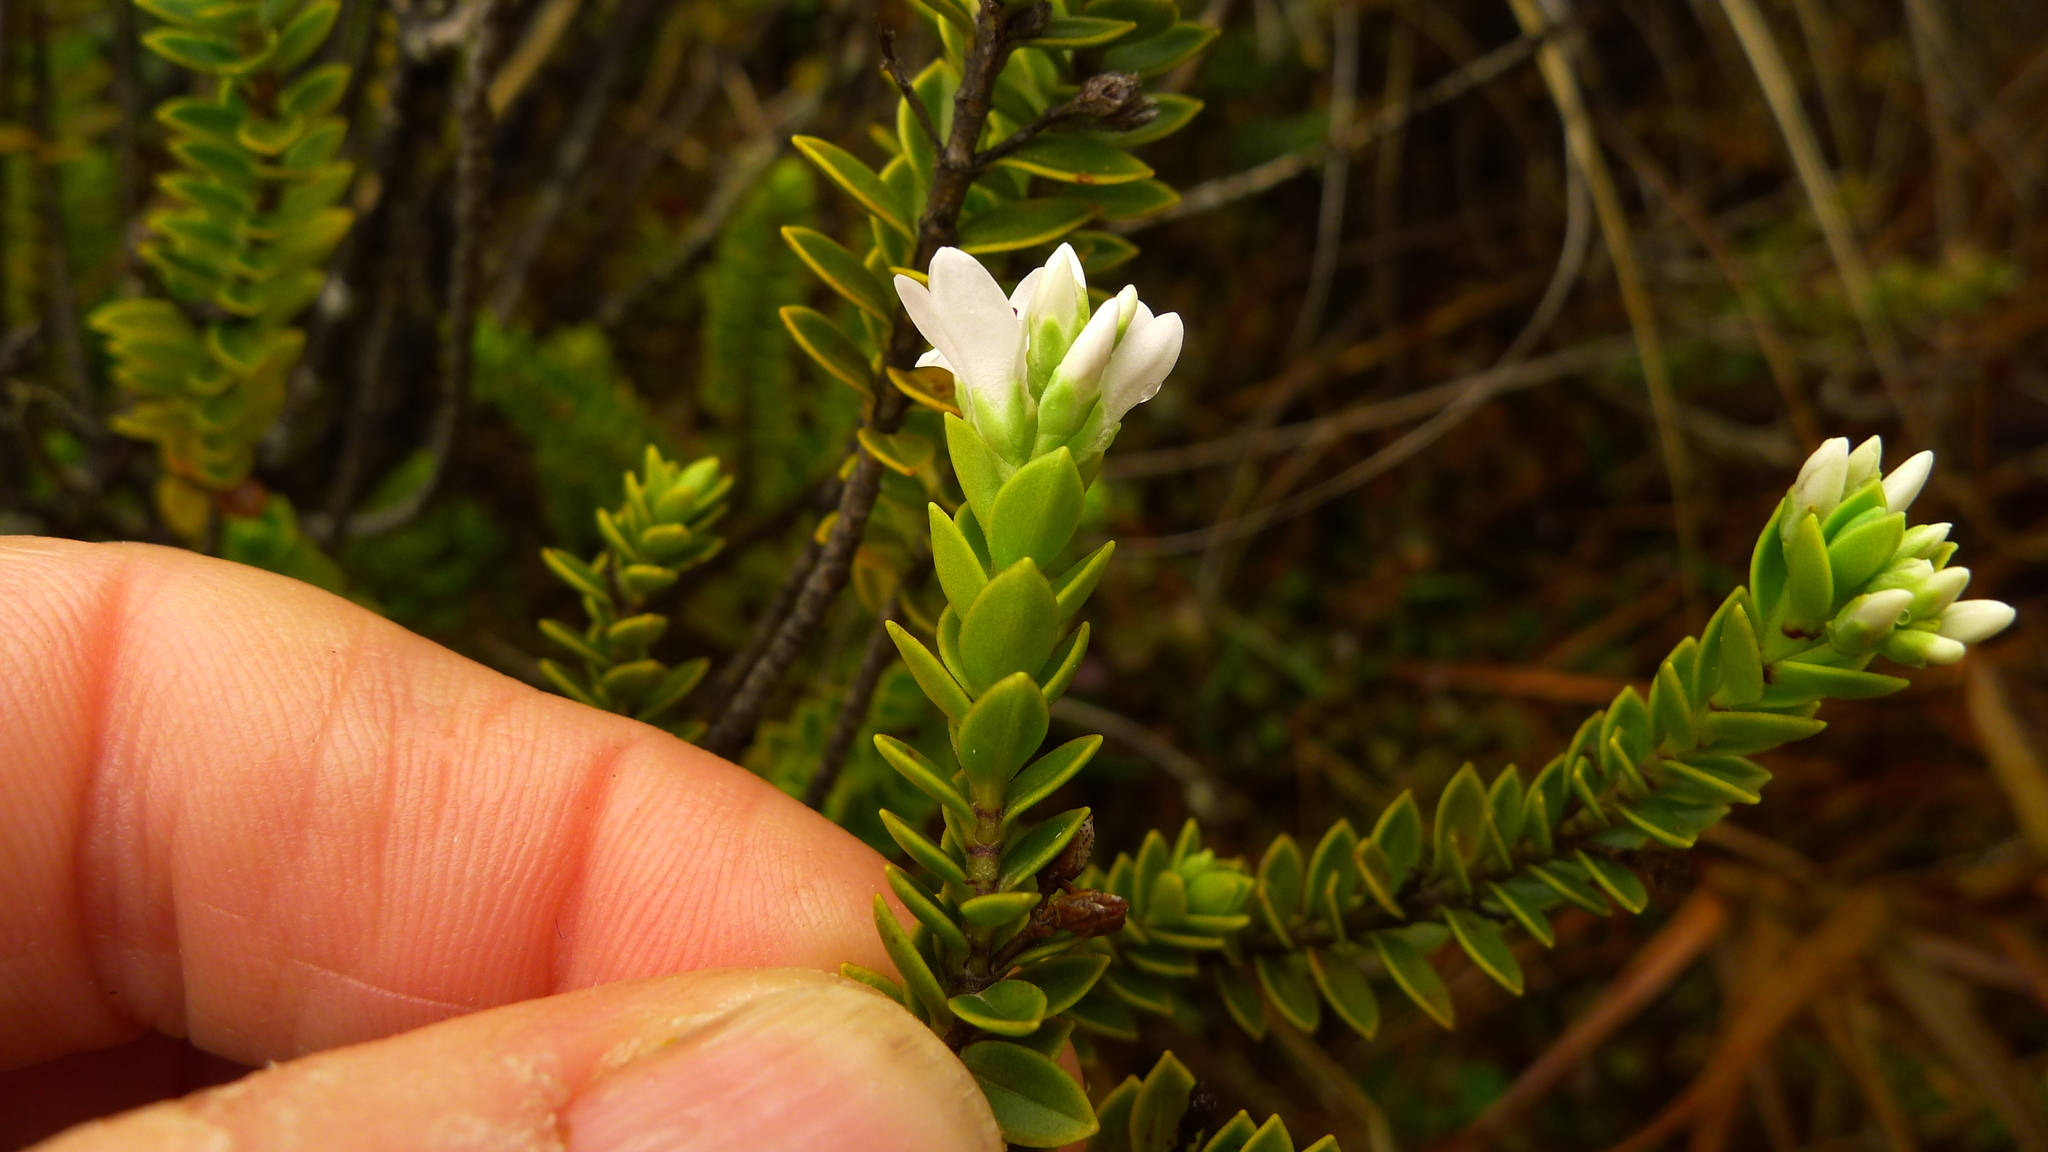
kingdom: Plantae
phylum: Tracheophyta
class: Magnoliopsida
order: Lamiales
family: Plantaginaceae
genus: Veronica
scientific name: Veronica odora
